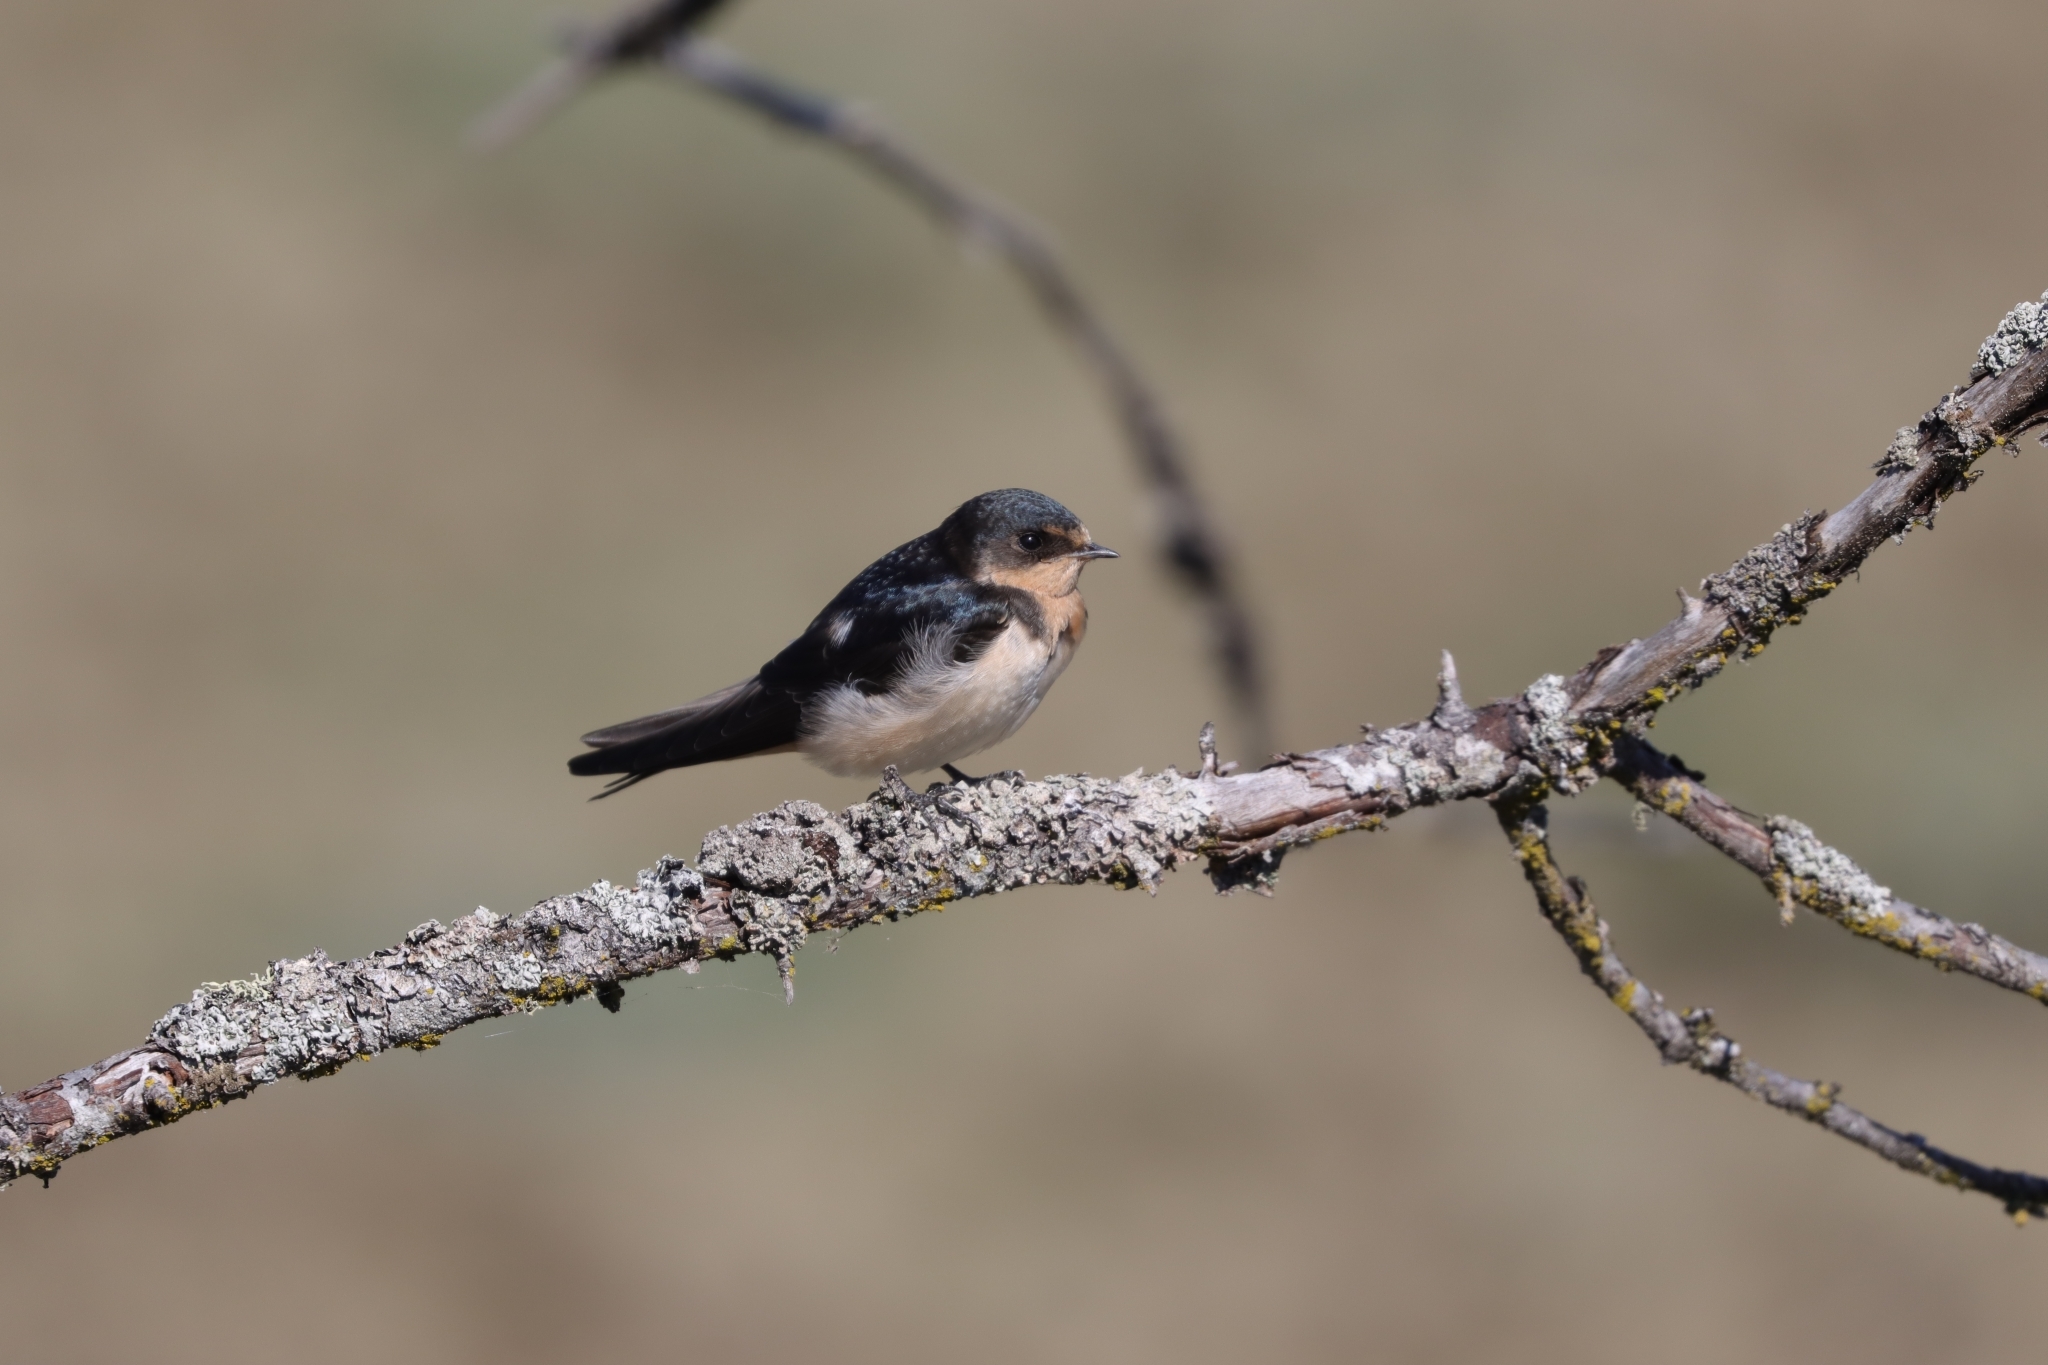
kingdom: Animalia
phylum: Chordata
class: Aves
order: Passeriformes
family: Hirundinidae
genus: Hirundo
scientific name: Hirundo rustica
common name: Barn swallow
